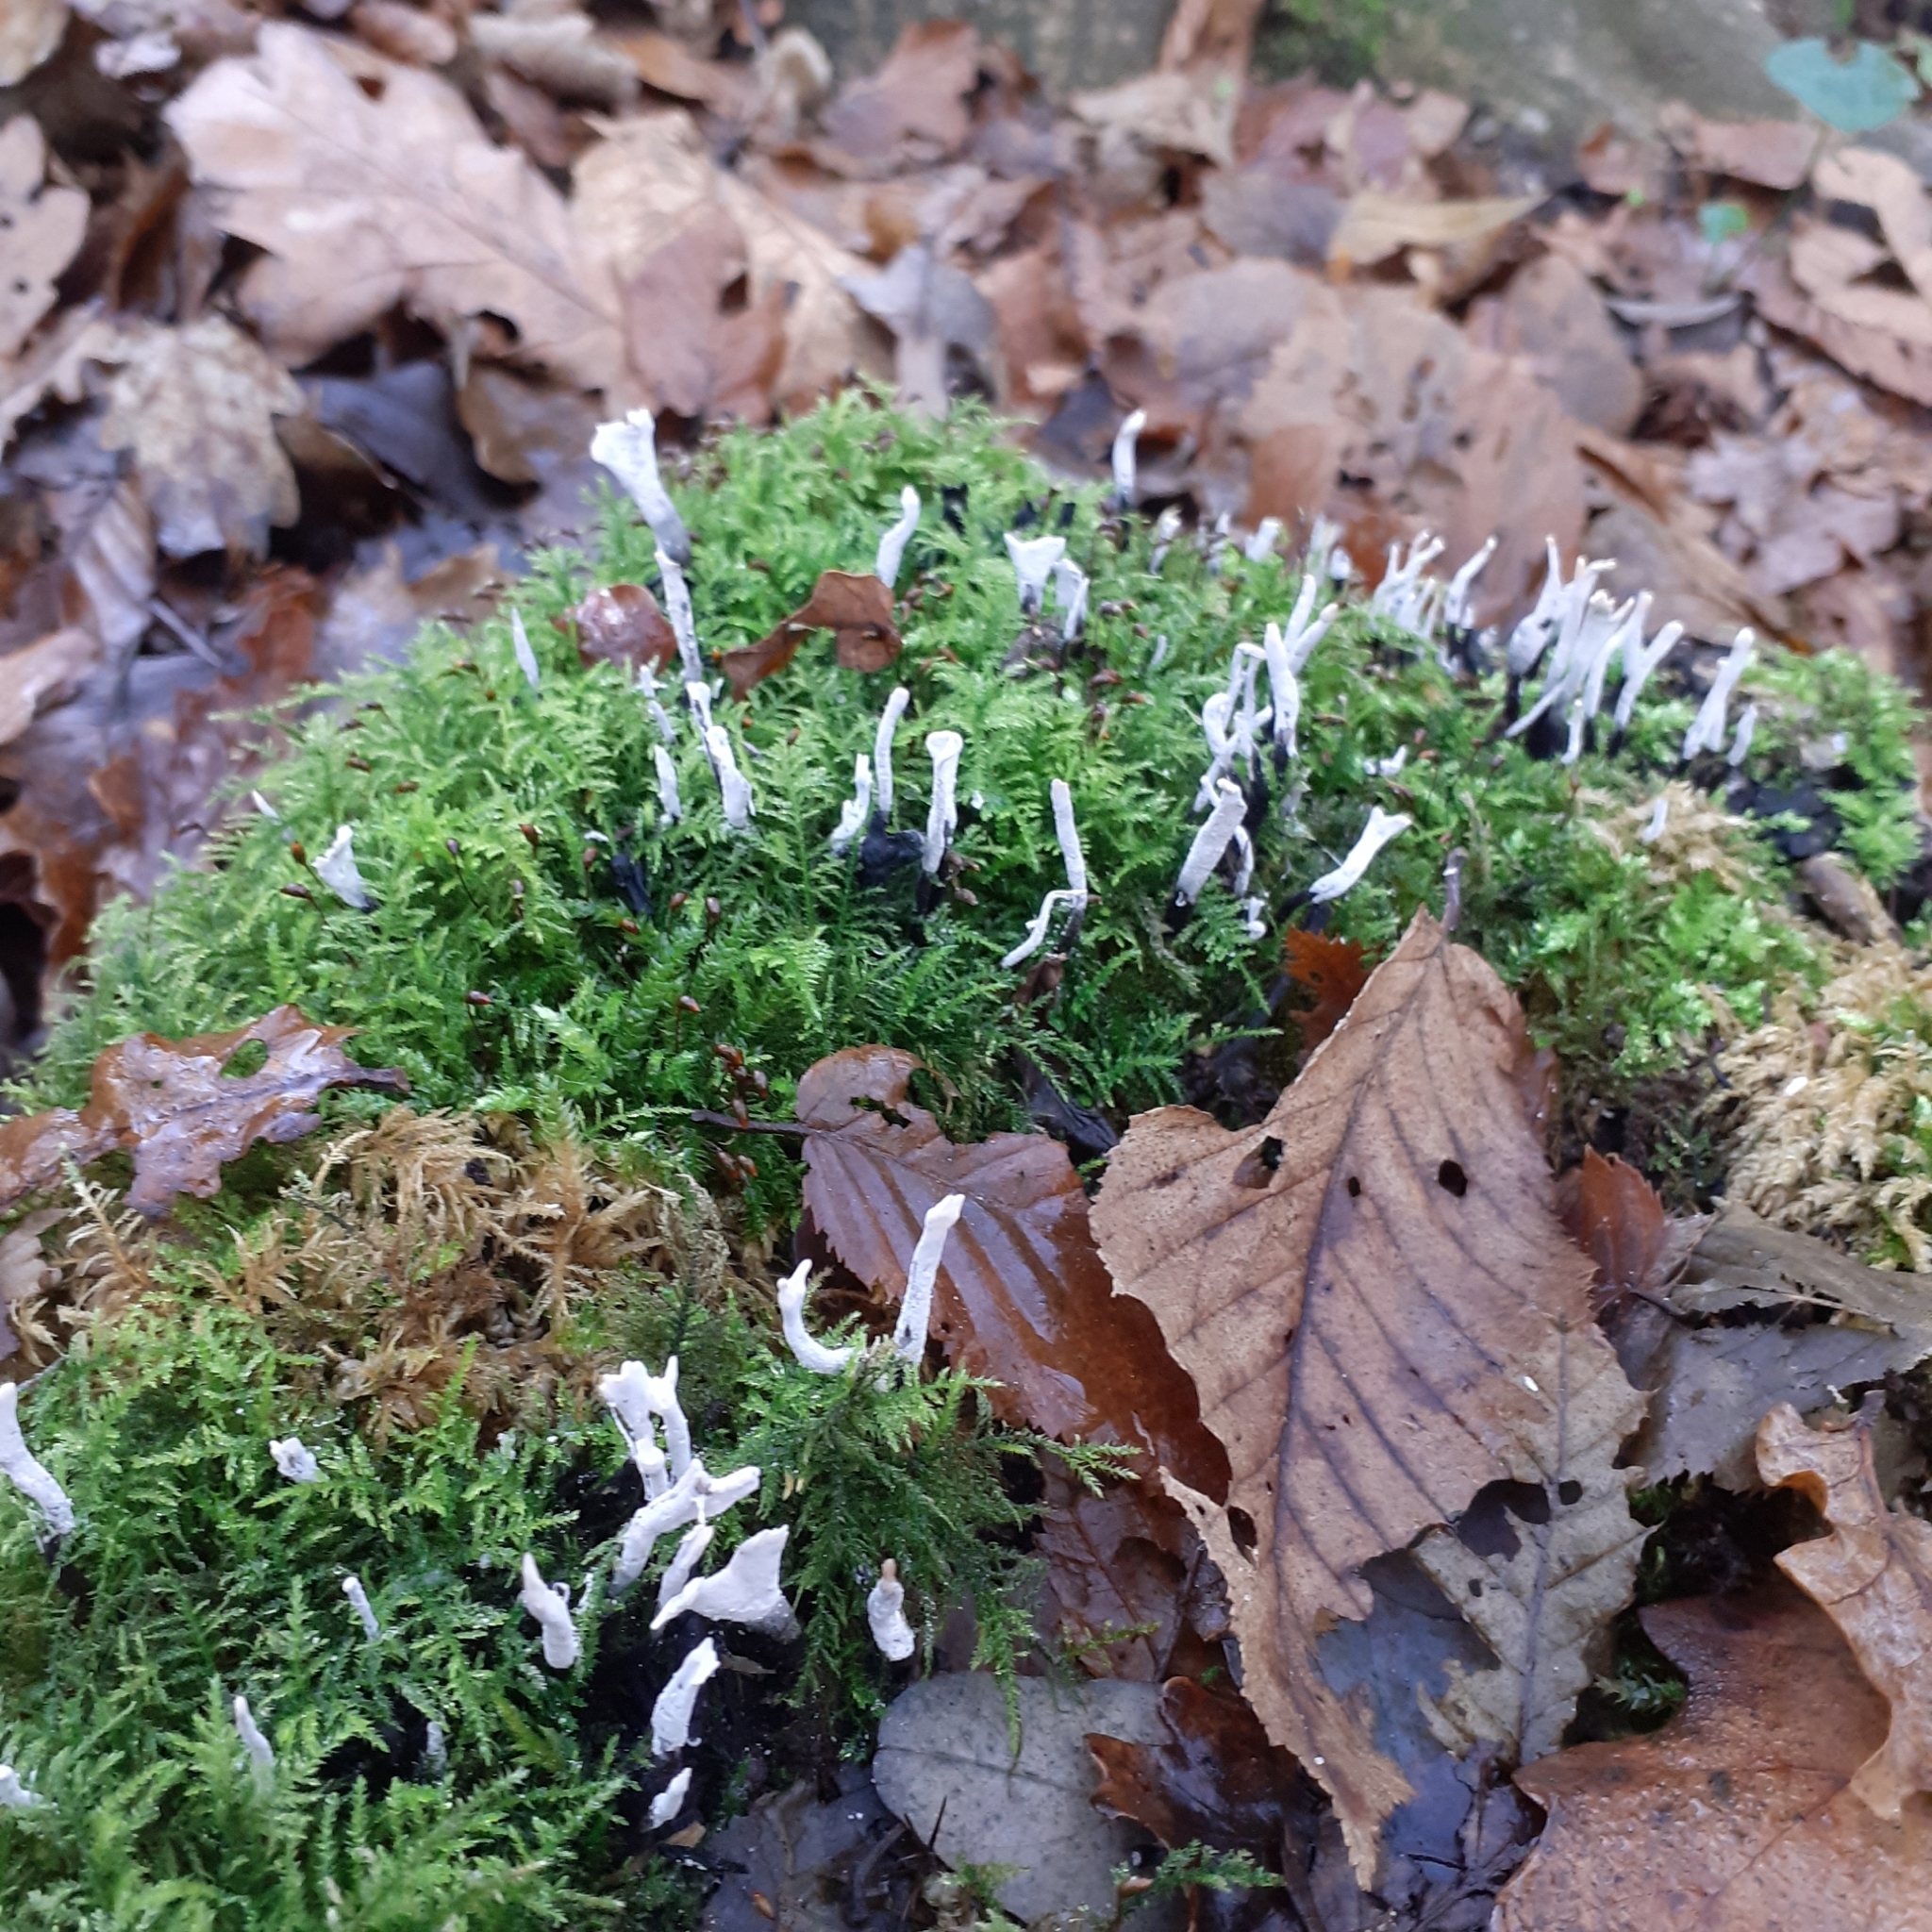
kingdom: Fungi
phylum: Ascomycota
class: Sordariomycetes
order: Xylariales
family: Xylariaceae
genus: Xylaria
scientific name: Xylaria hypoxylon
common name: Candle-snuff fungus
